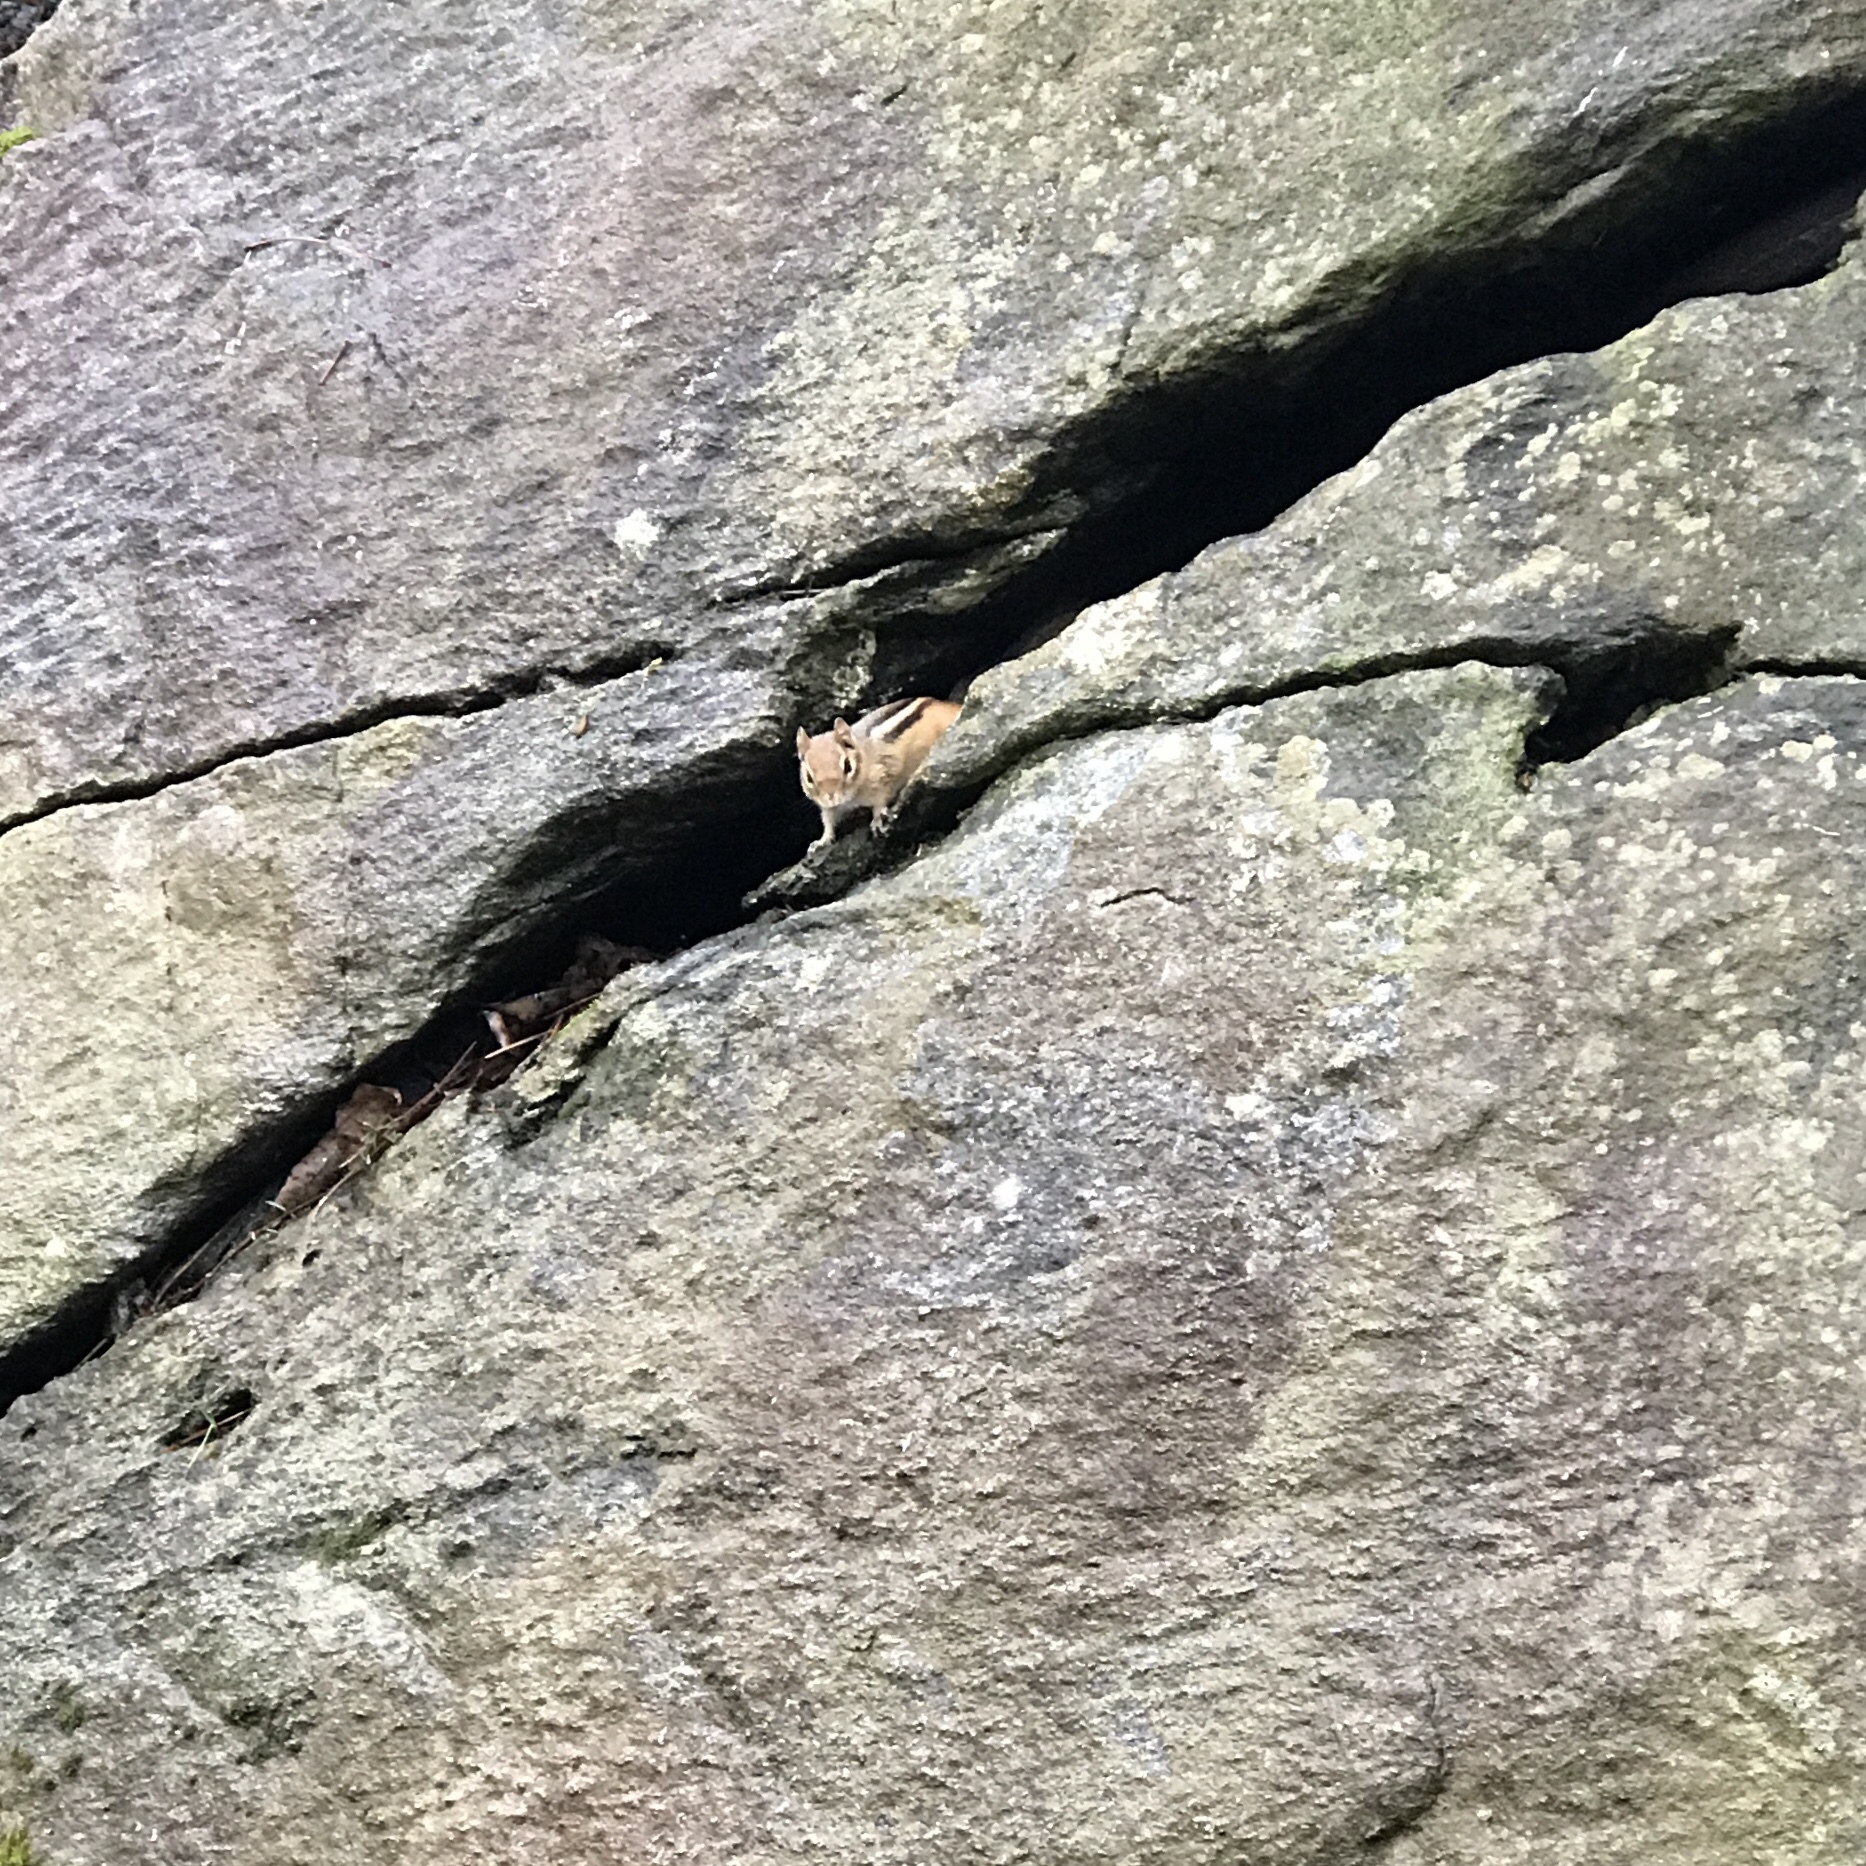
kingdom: Animalia
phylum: Chordata
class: Mammalia
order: Rodentia
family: Sciuridae
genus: Tamias
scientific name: Tamias striatus
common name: Eastern chipmunk
